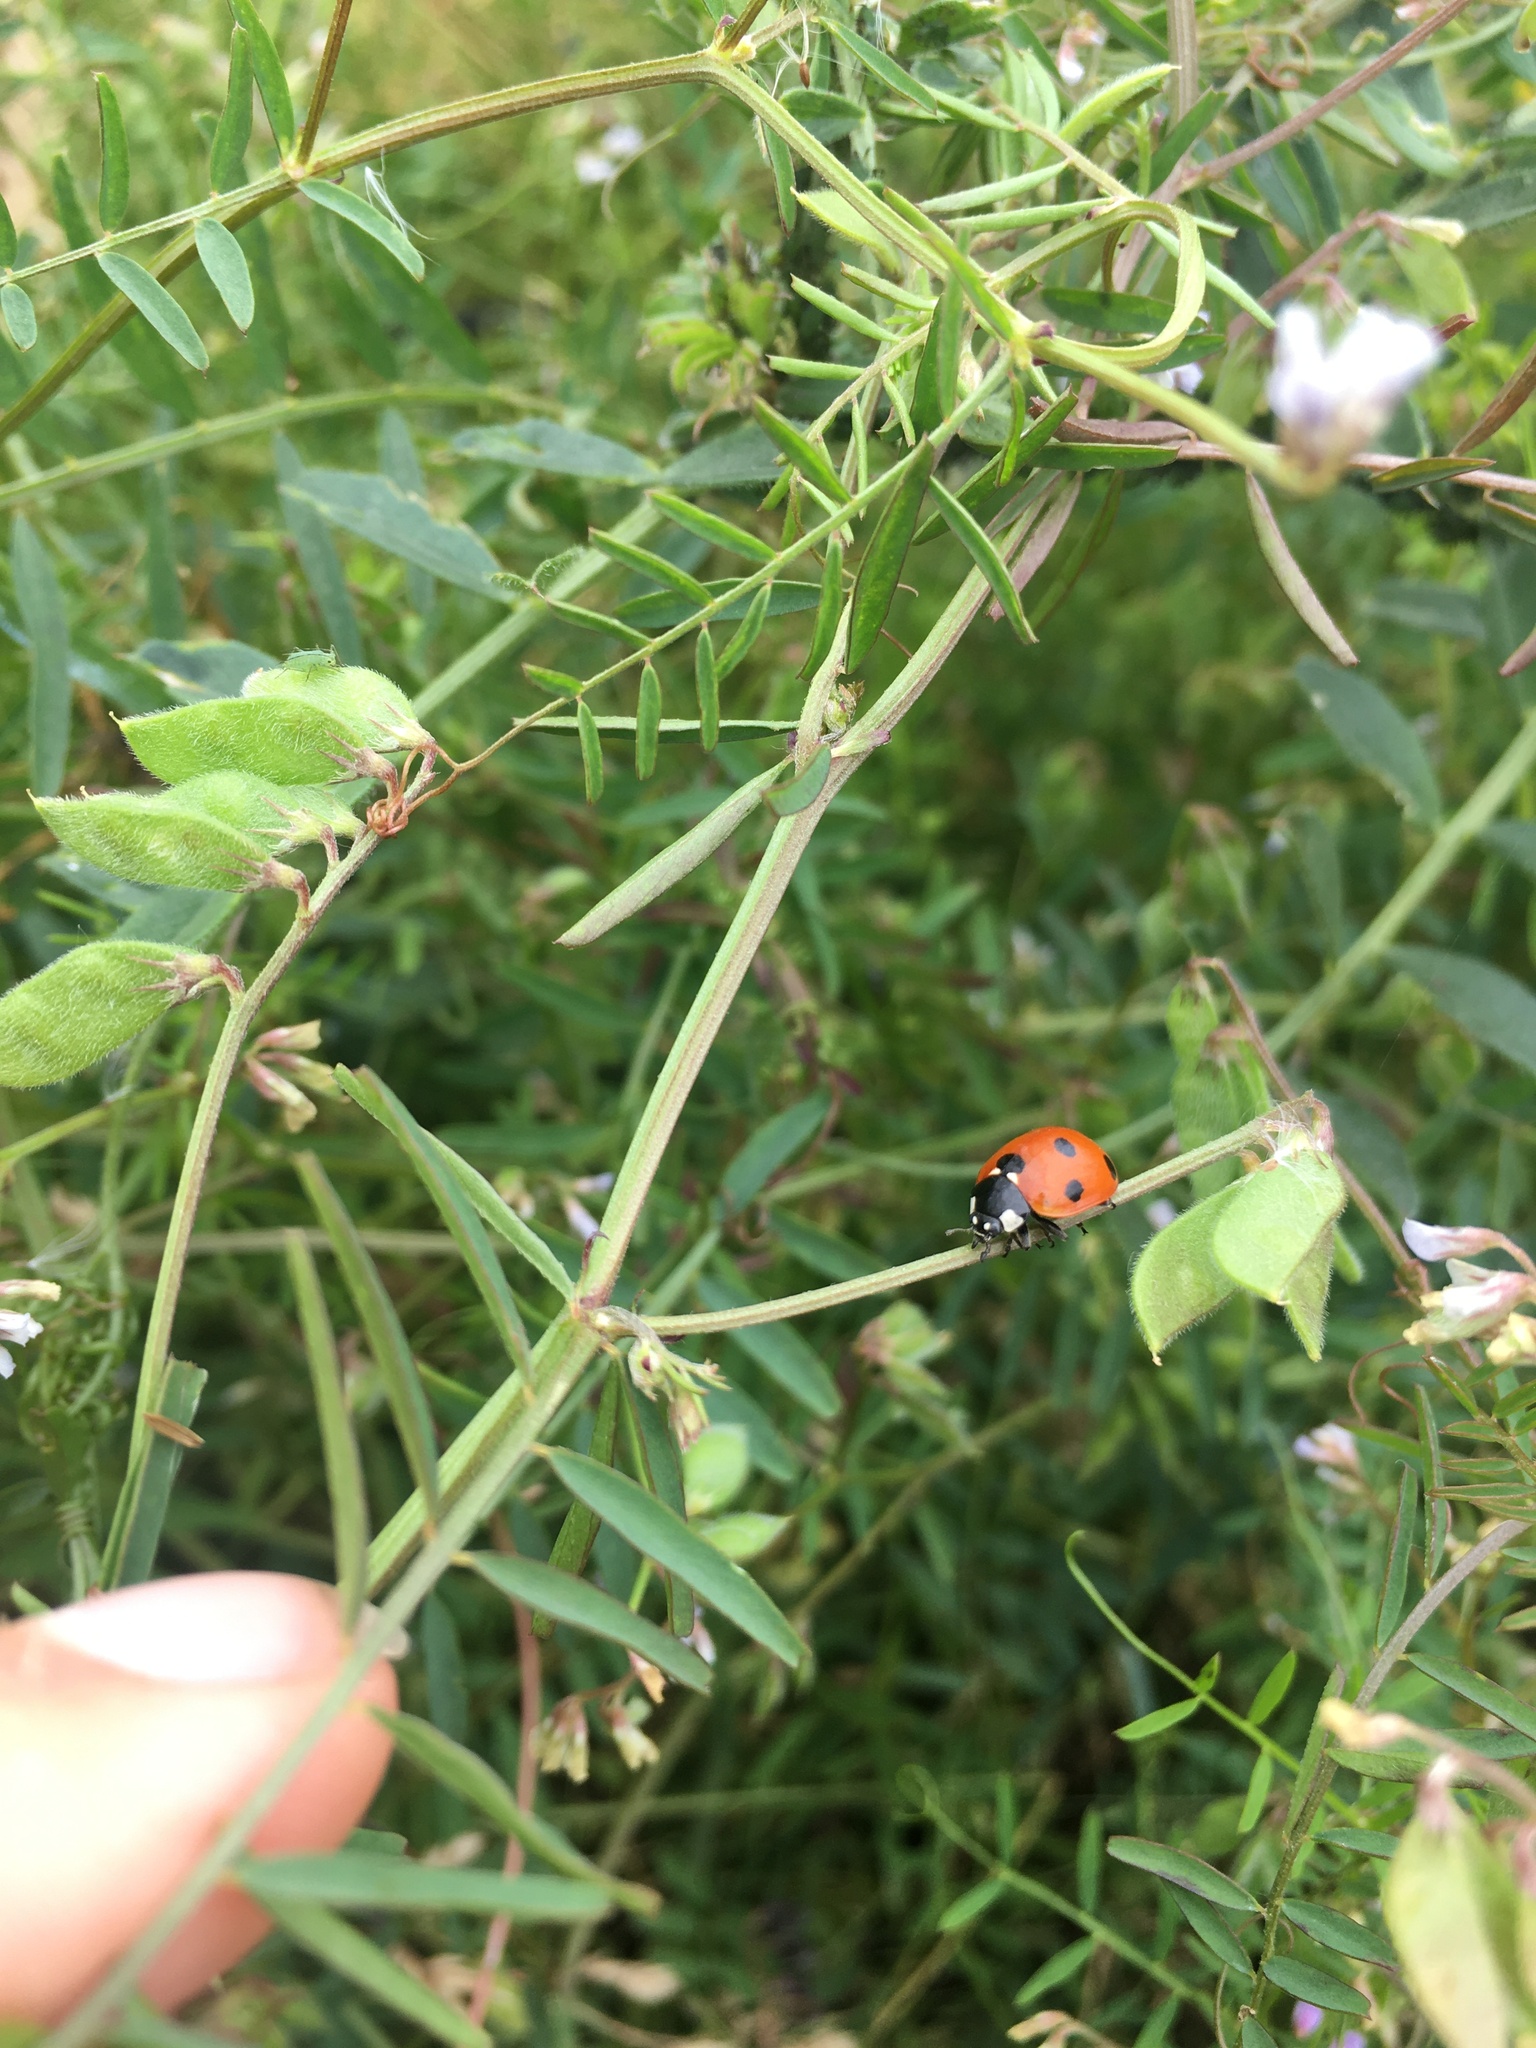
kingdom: Animalia
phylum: Arthropoda
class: Insecta
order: Coleoptera
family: Coccinellidae
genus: Coccinella
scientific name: Coccinella septempunctata
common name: Sevenspotted lady beetle
